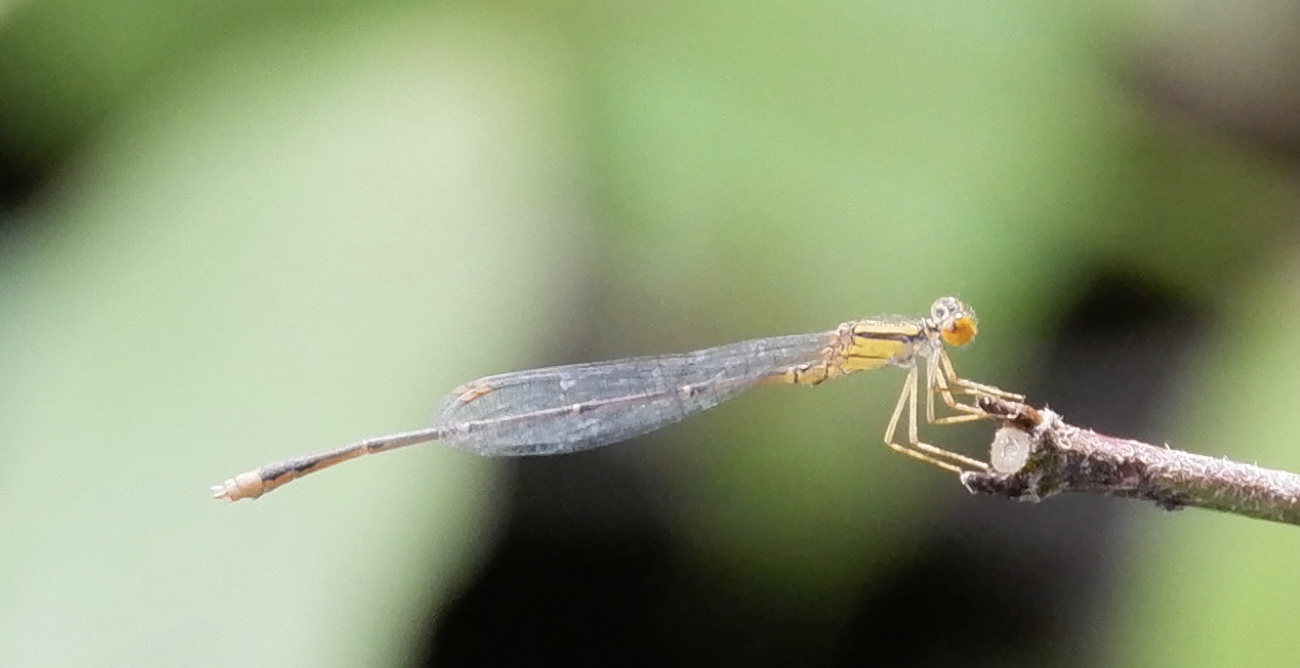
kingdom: Animalia
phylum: Arthropoda
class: Insecta
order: Odonata
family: Coenagrionidae
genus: Enallagma
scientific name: Enallagma signatum
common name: Orange bluet
